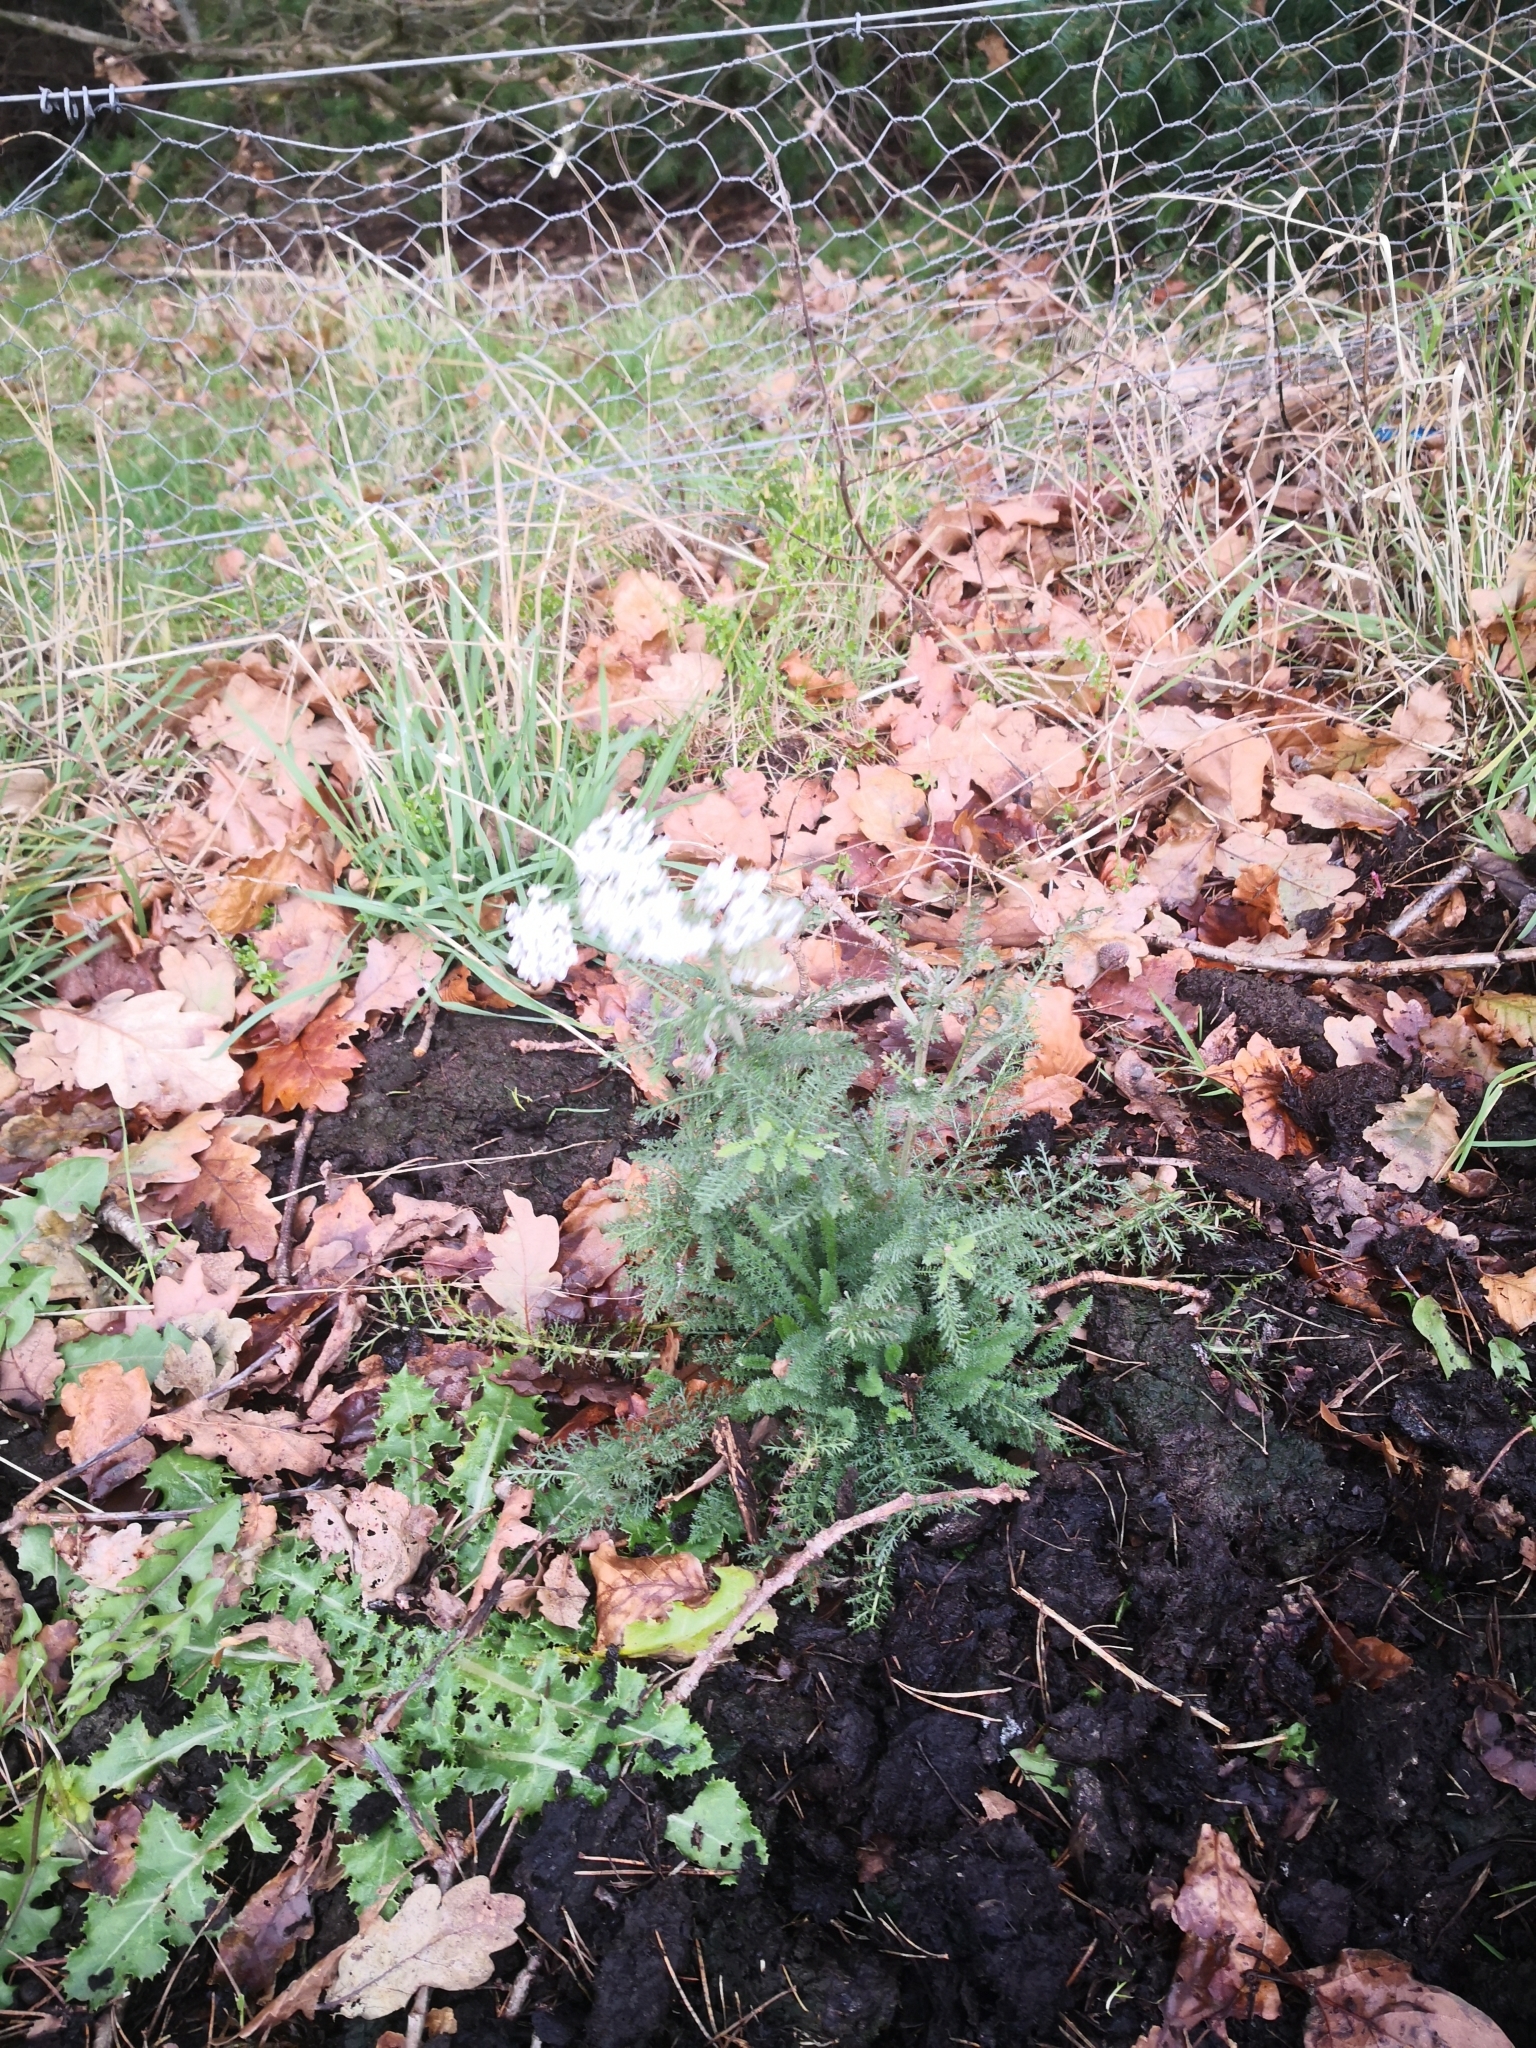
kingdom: Plantae
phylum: Tracheophyta
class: Magnoliopsida
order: Asterales
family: Asteraceae
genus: Achillea
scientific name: Achillea millefolium
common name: Yarrow
